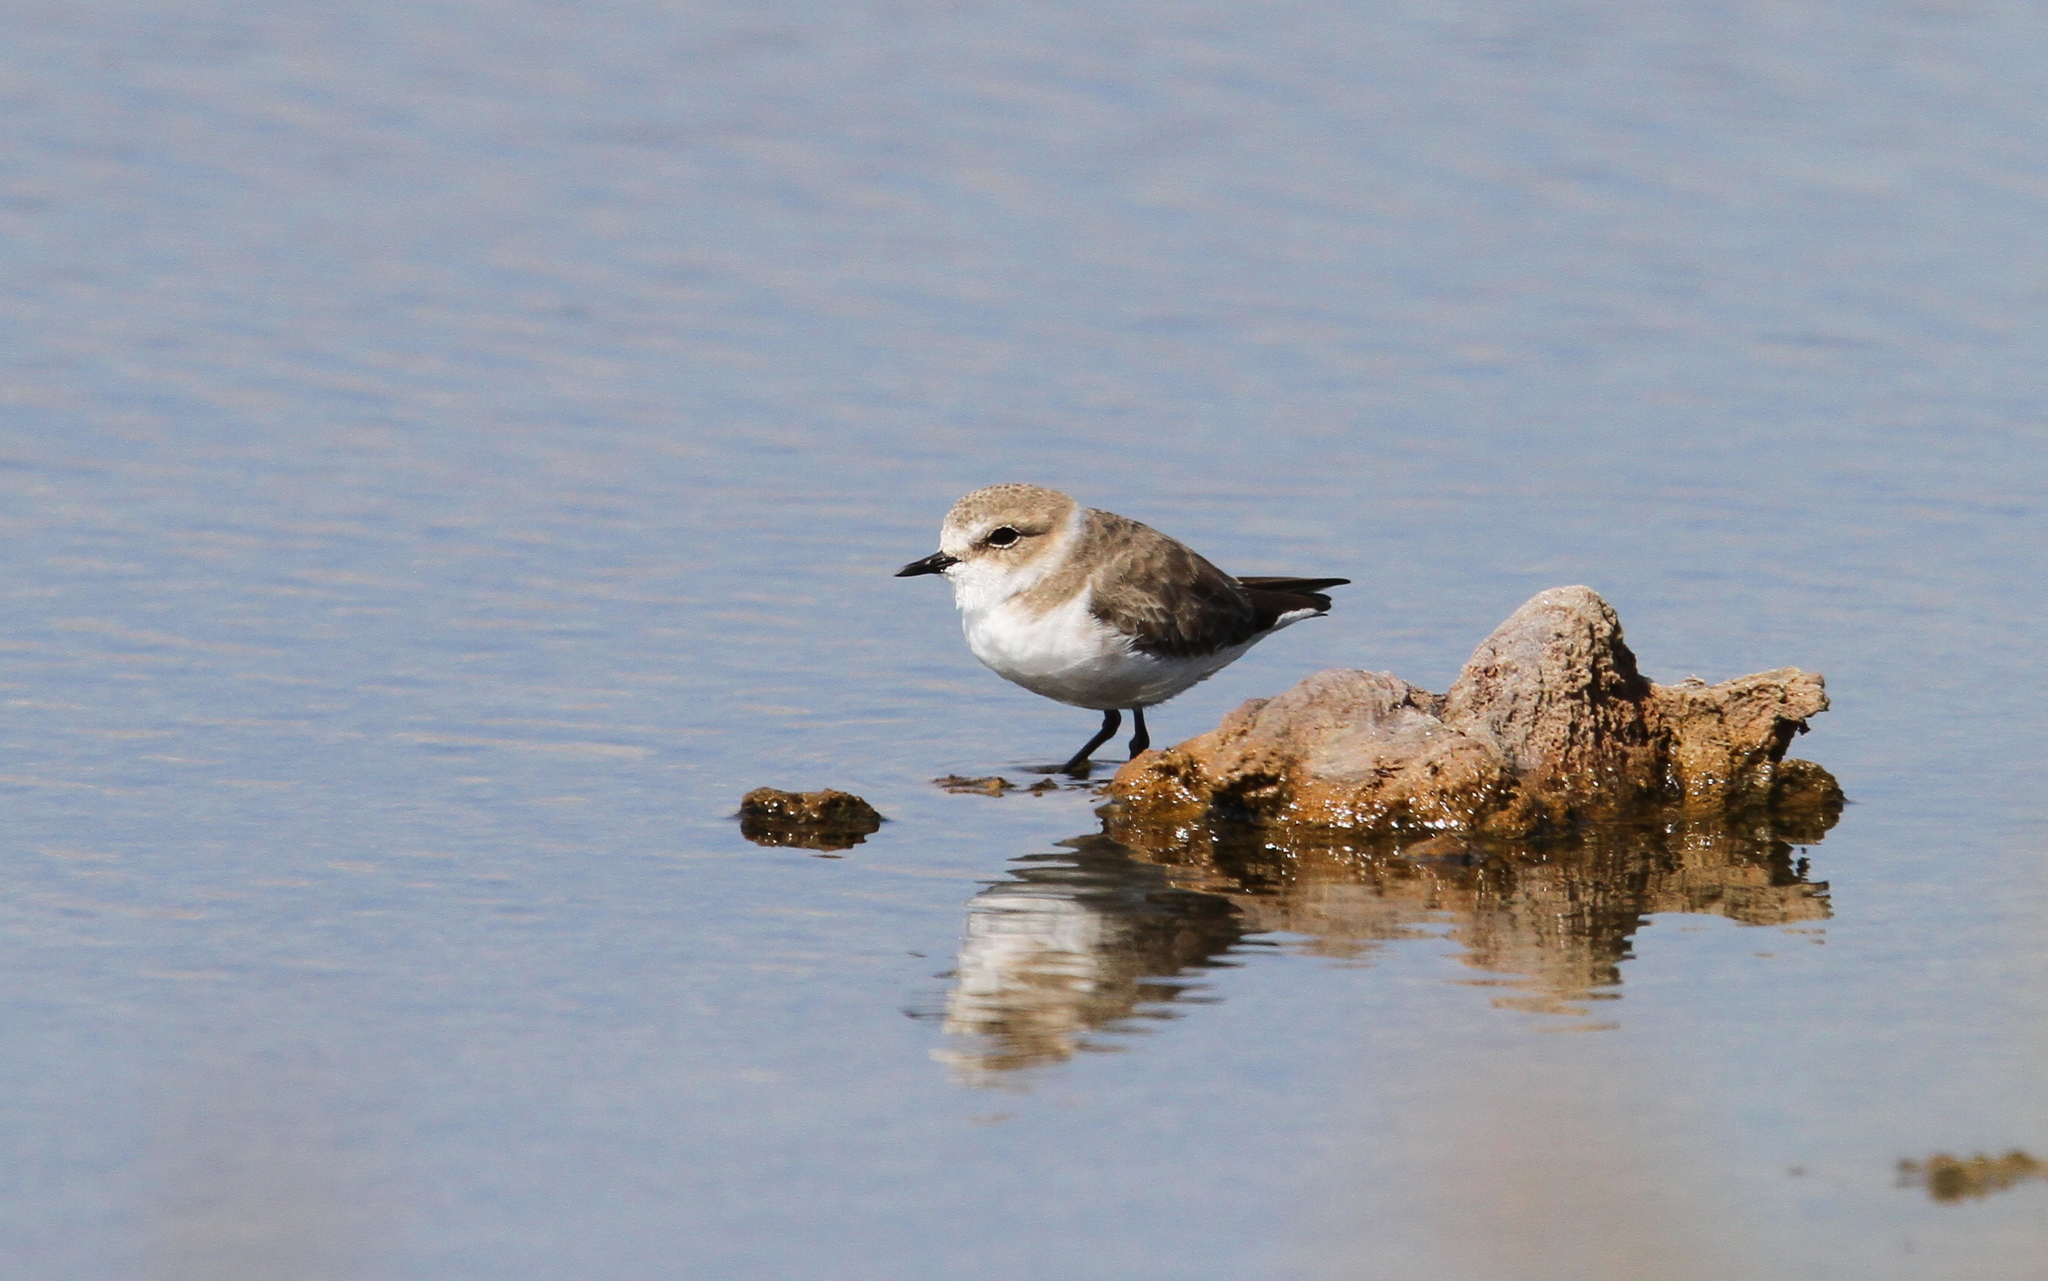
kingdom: Animalia
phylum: Chordata
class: Aves
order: Charadriiformes
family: Charadriidae
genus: Charadrius
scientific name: Charadrius alexandrinus
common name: Kentish plover
